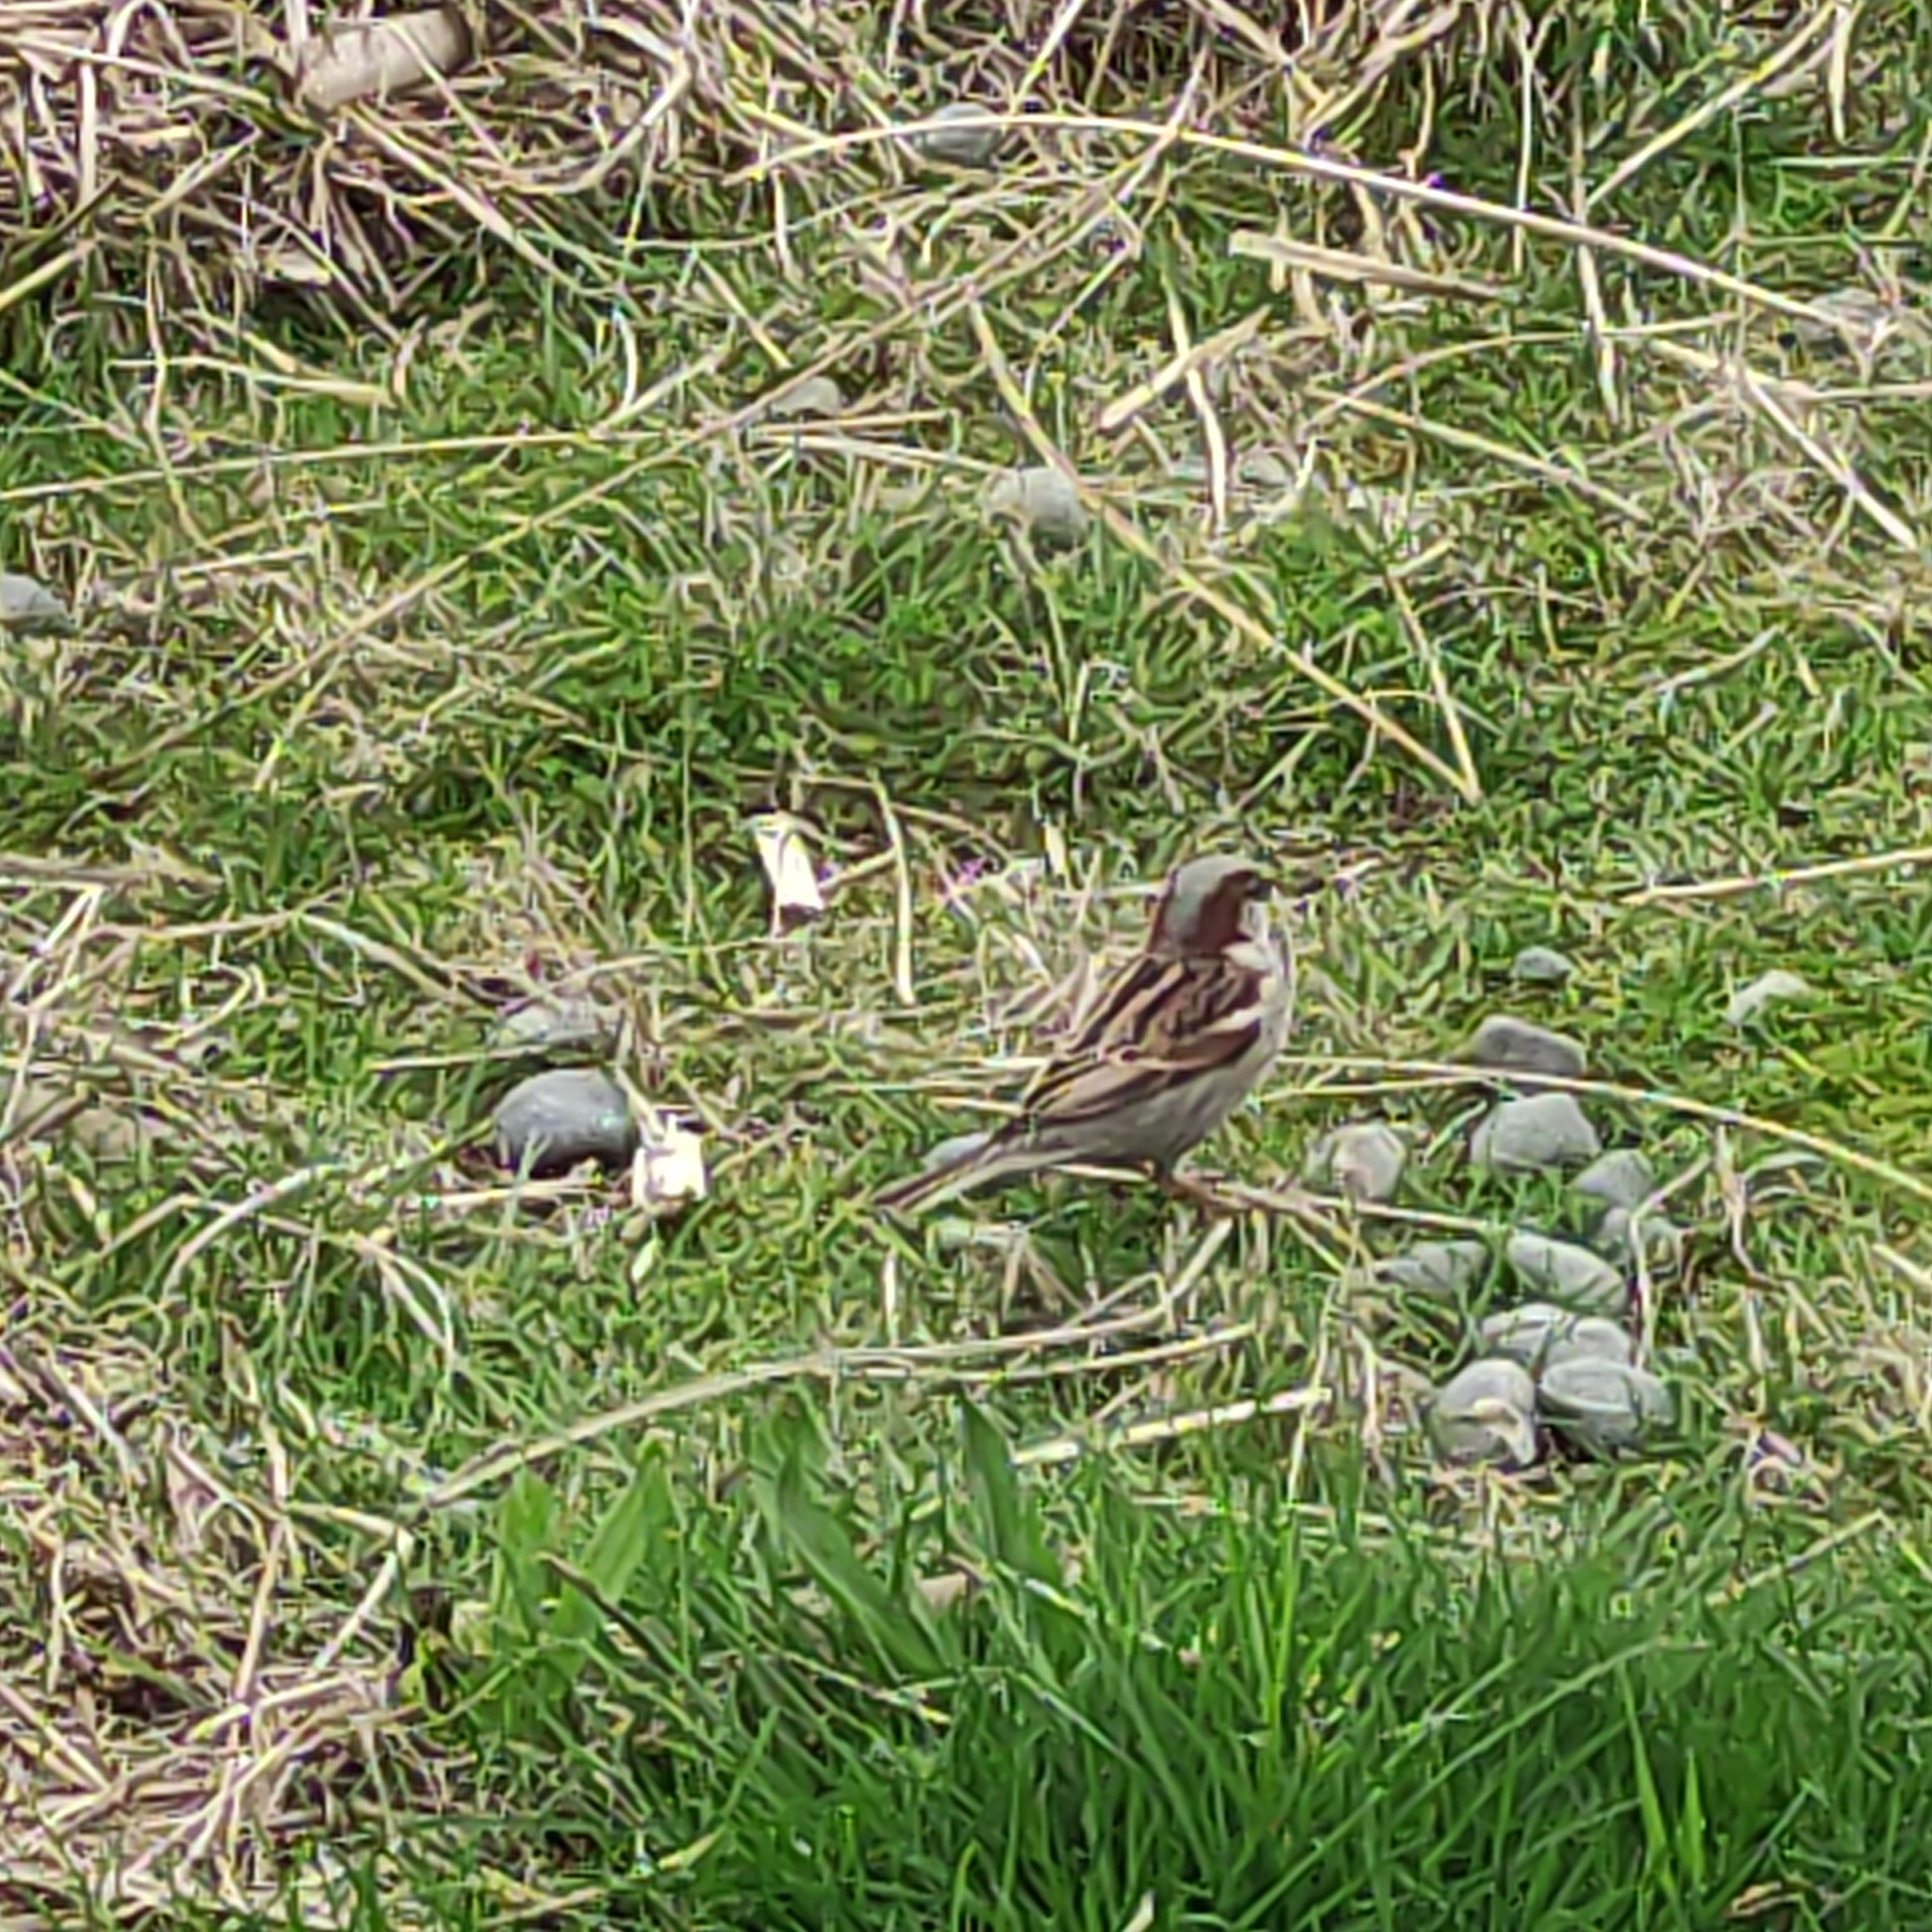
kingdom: Animalia
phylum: Chordata
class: Aves
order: Passeriformes
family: Passeridae
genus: Passer
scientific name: Passer domesticus
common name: House sparrow
